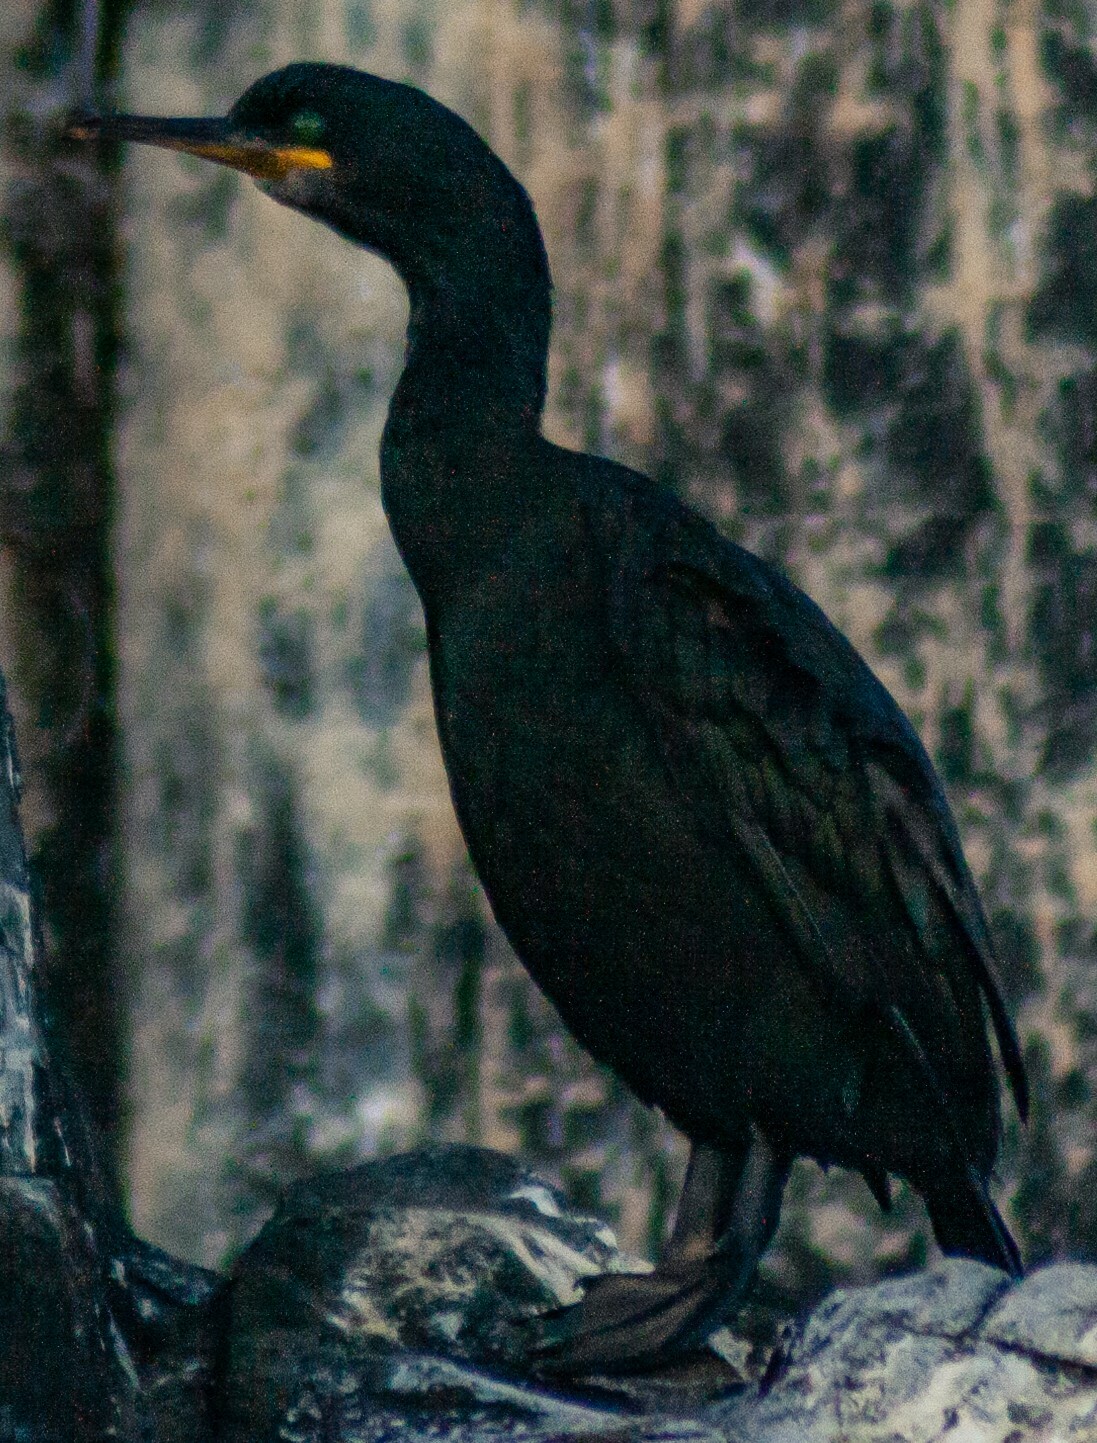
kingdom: Animalia
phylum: Chordata
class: Aves
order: Suliformes
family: Phalacrocoracidae
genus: Phalacrocorax
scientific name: Phalacrocorax aristotelis
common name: European shag
